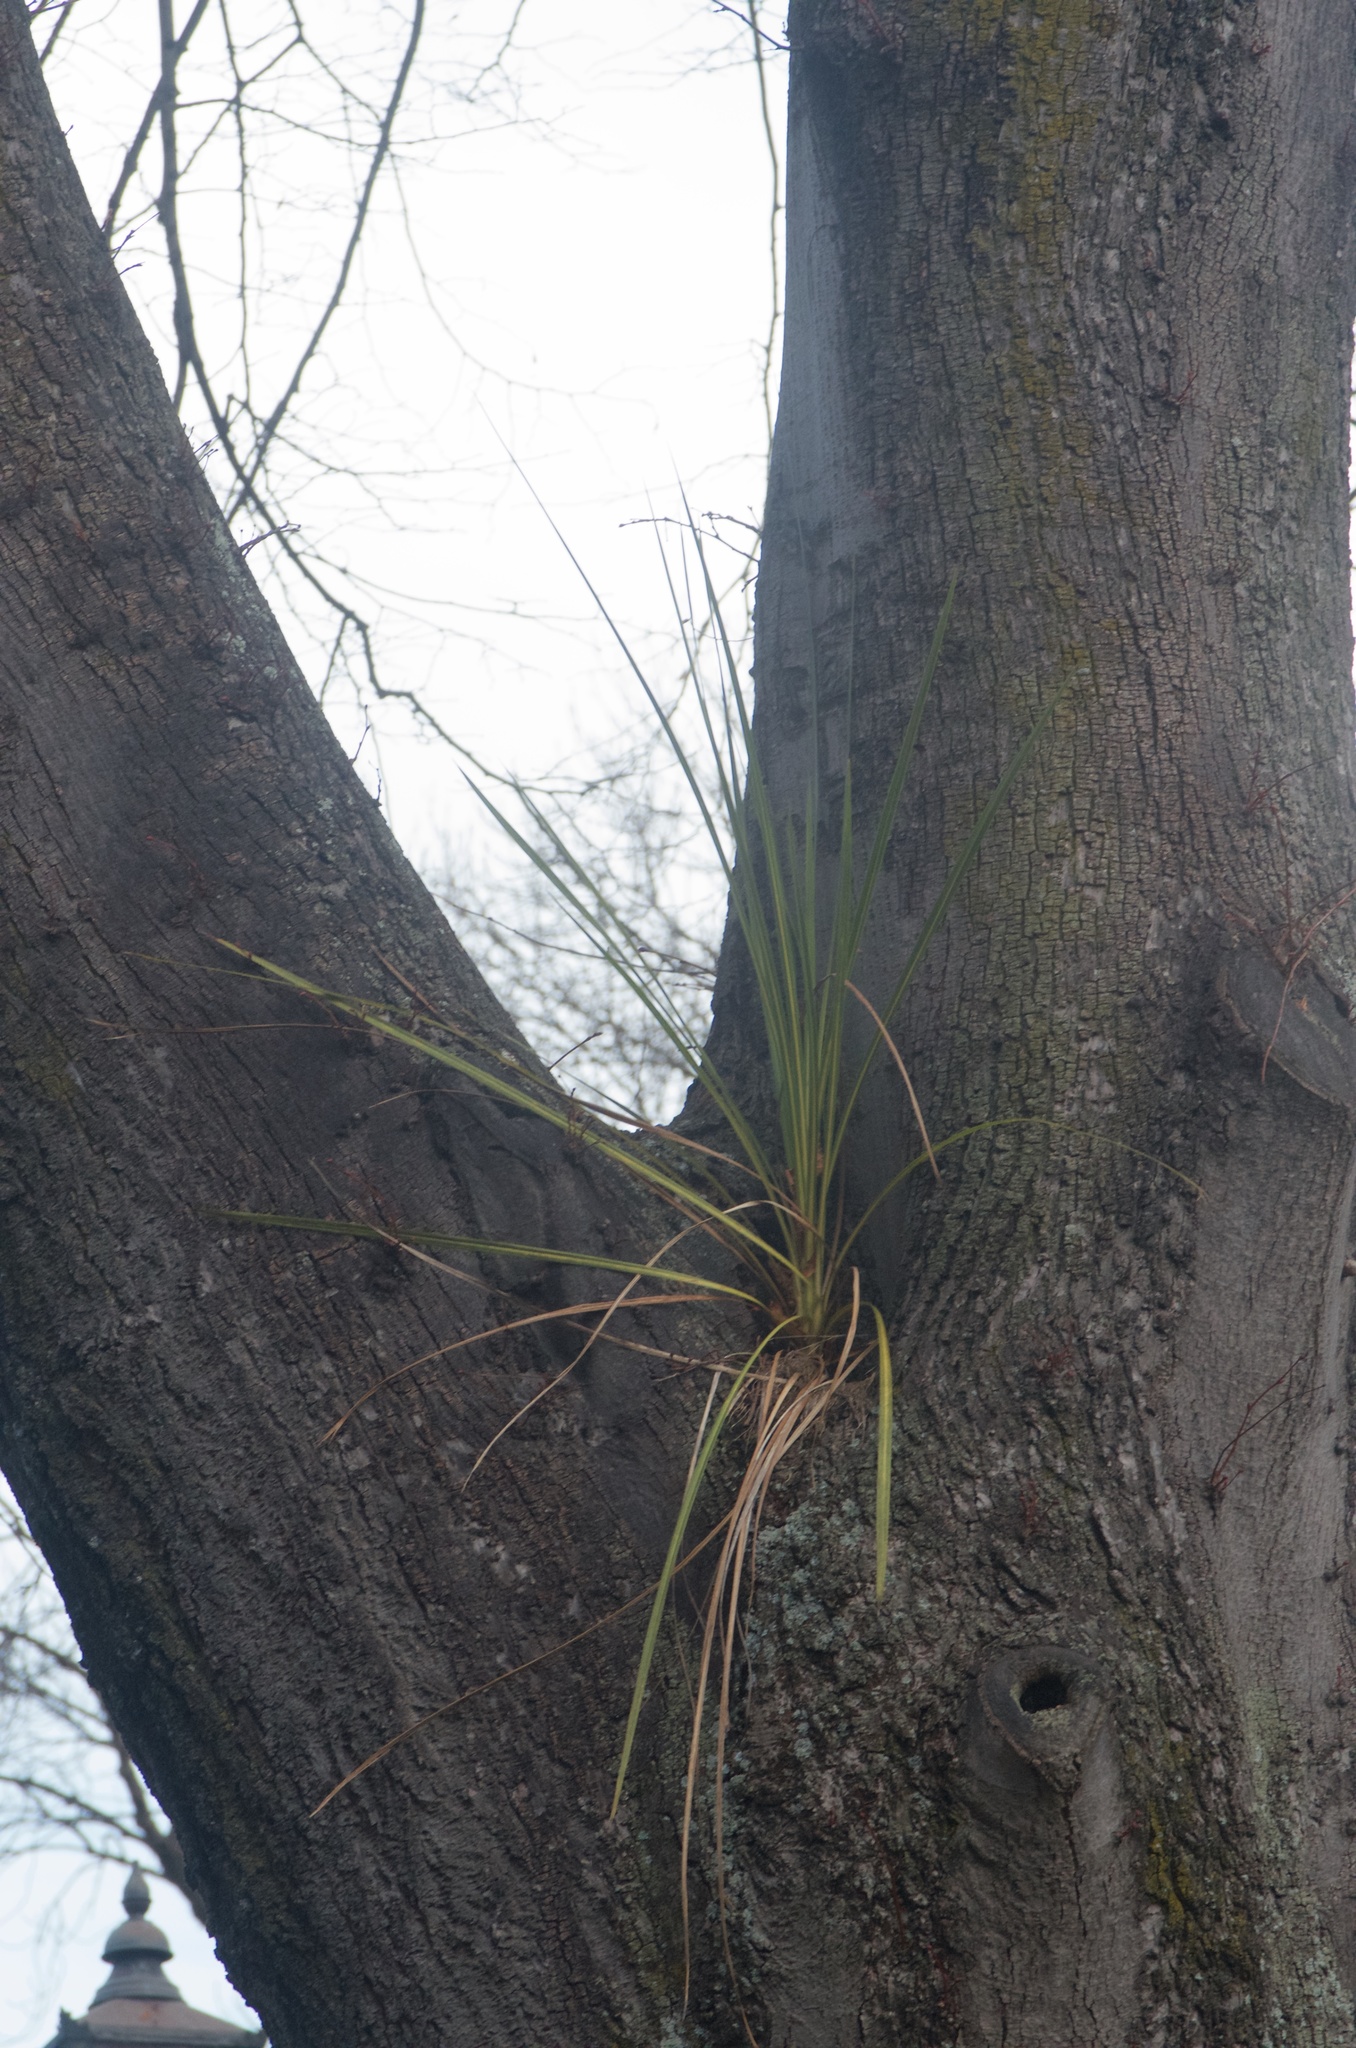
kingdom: Plantae
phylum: Tracheophyta
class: Liliopsida
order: Asparagales
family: Asparagaceae
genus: Cordyline
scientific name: Cordyline australis
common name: Cabbage-palm
